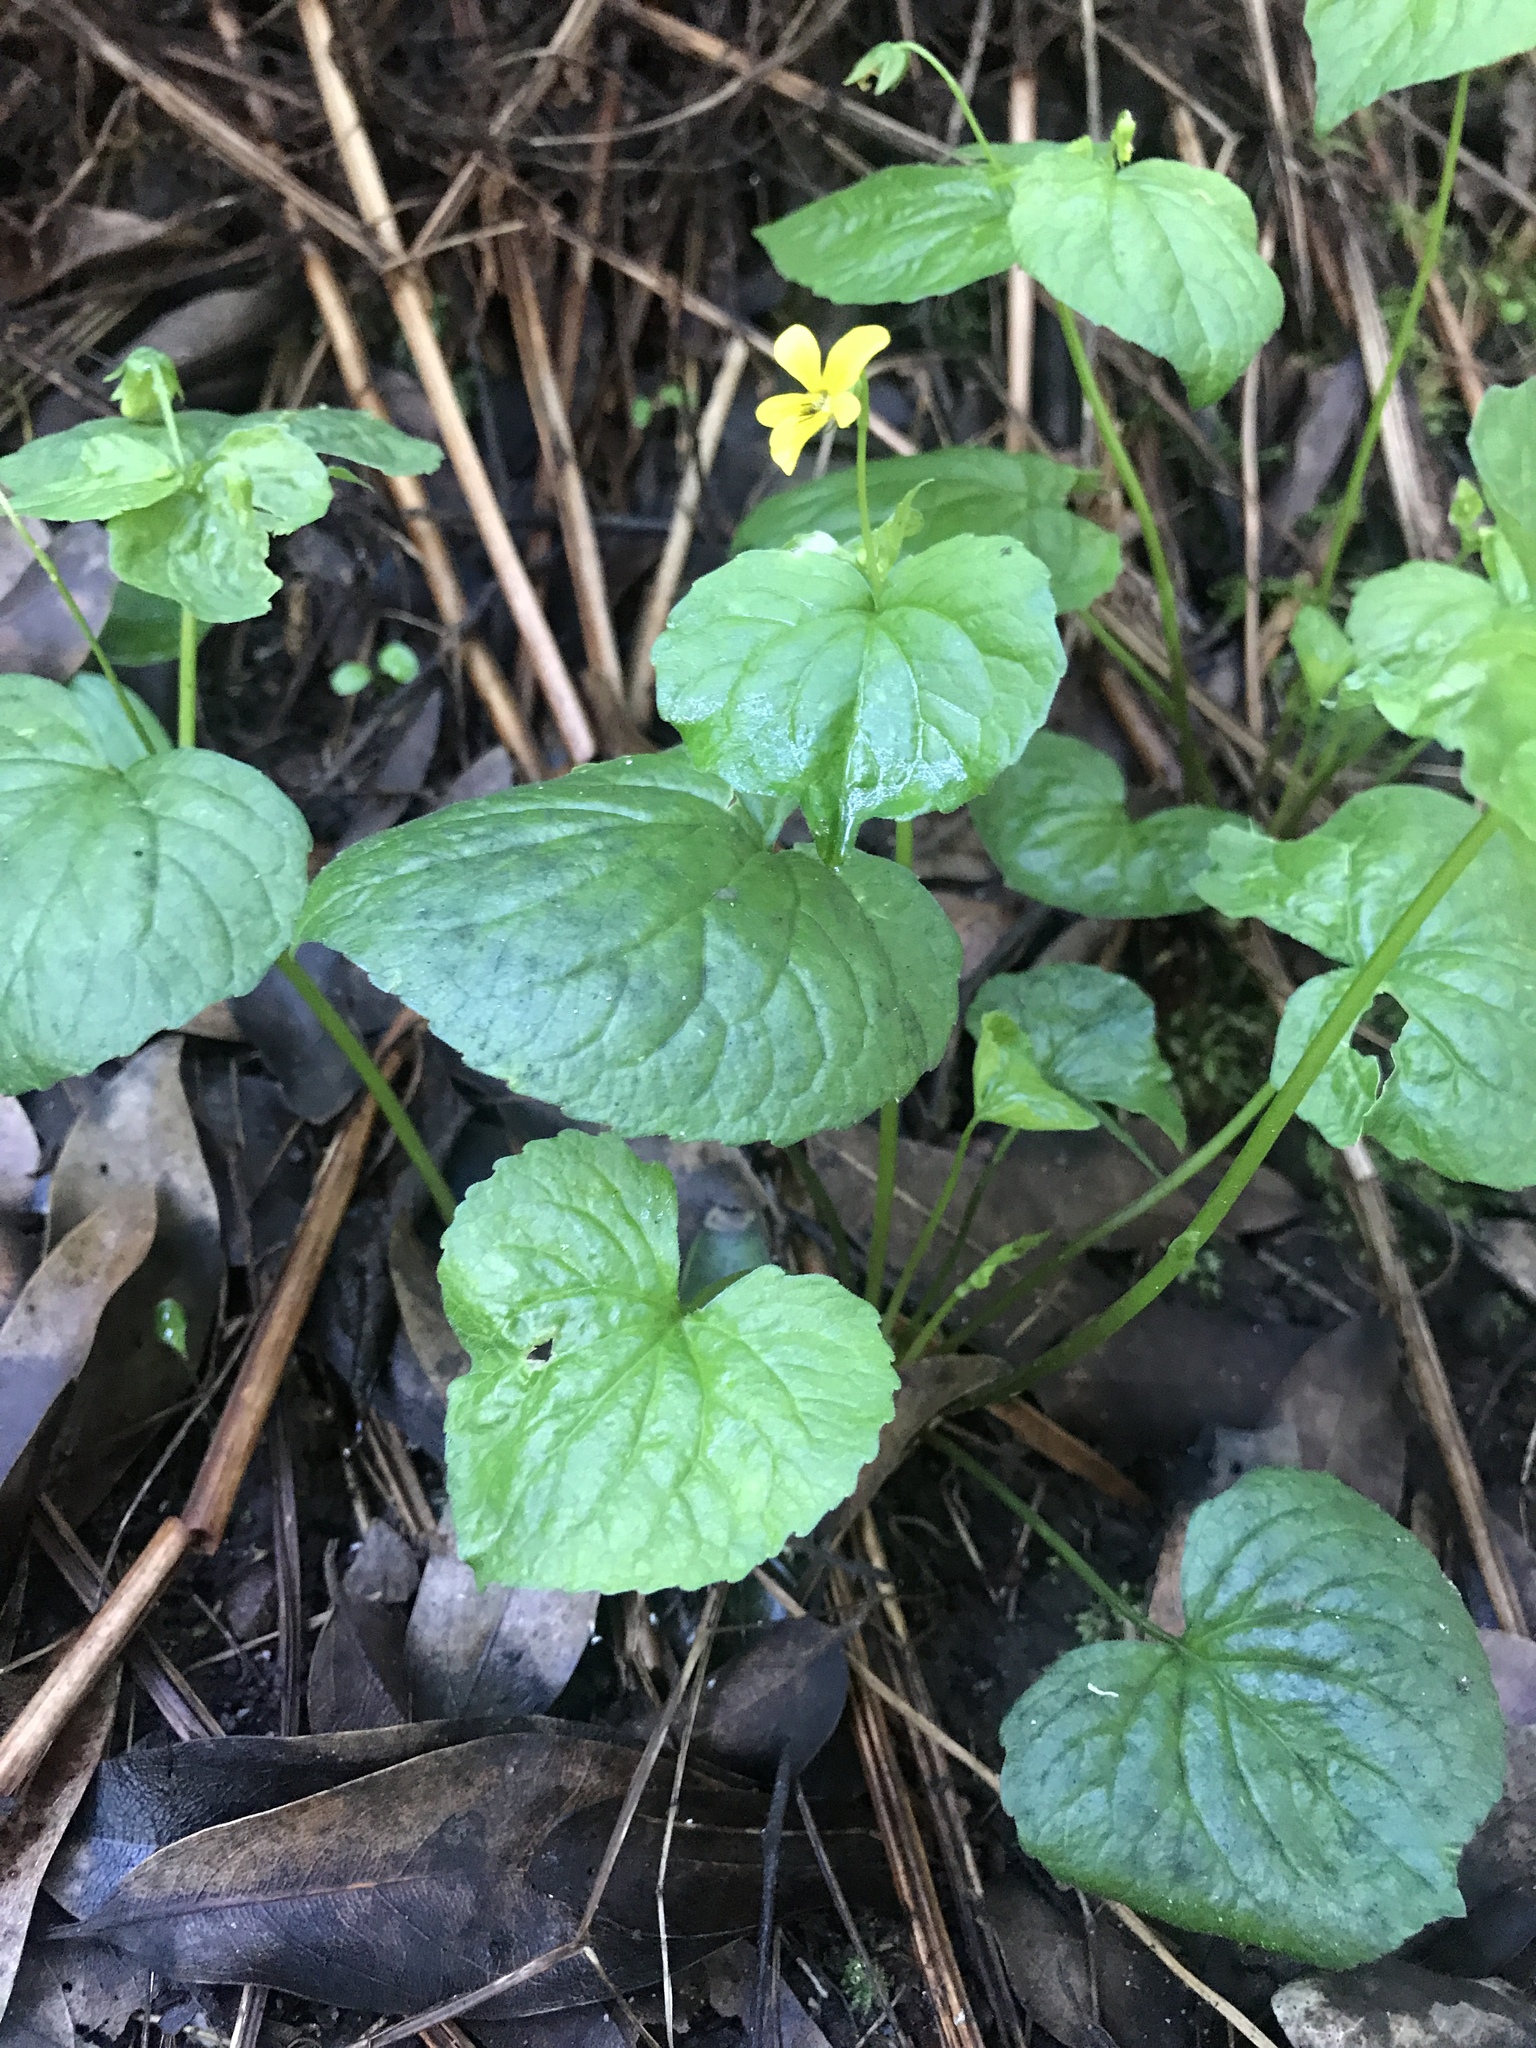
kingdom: Plantae
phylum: Tracheophyta
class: Magnoliopsida
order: Malpighiales
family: Violaceae
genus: Viola
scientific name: Viola glabella
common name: Stream violet
